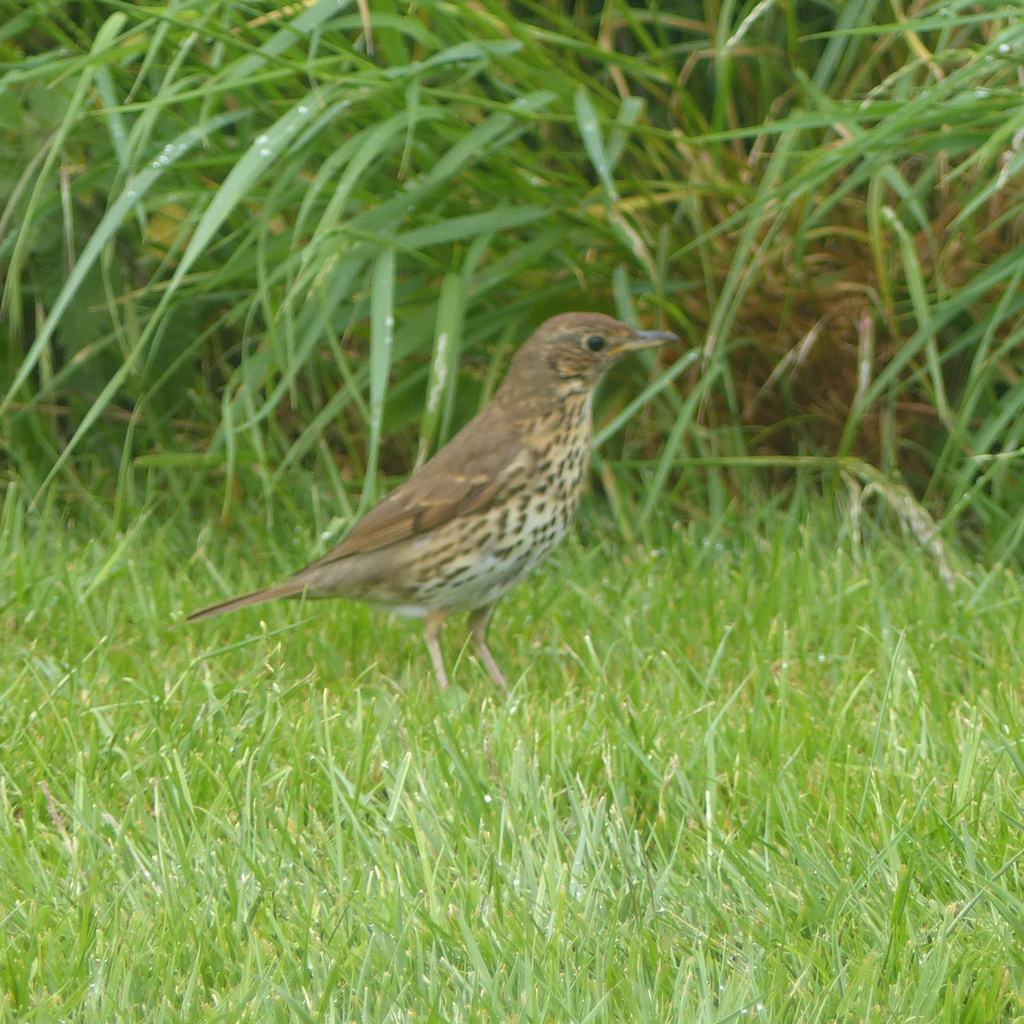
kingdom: Animalia
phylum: Chordata
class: Aves
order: Passeriformes
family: Turdidae
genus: Turdus
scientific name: Turdus philomelos
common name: Song thrush
